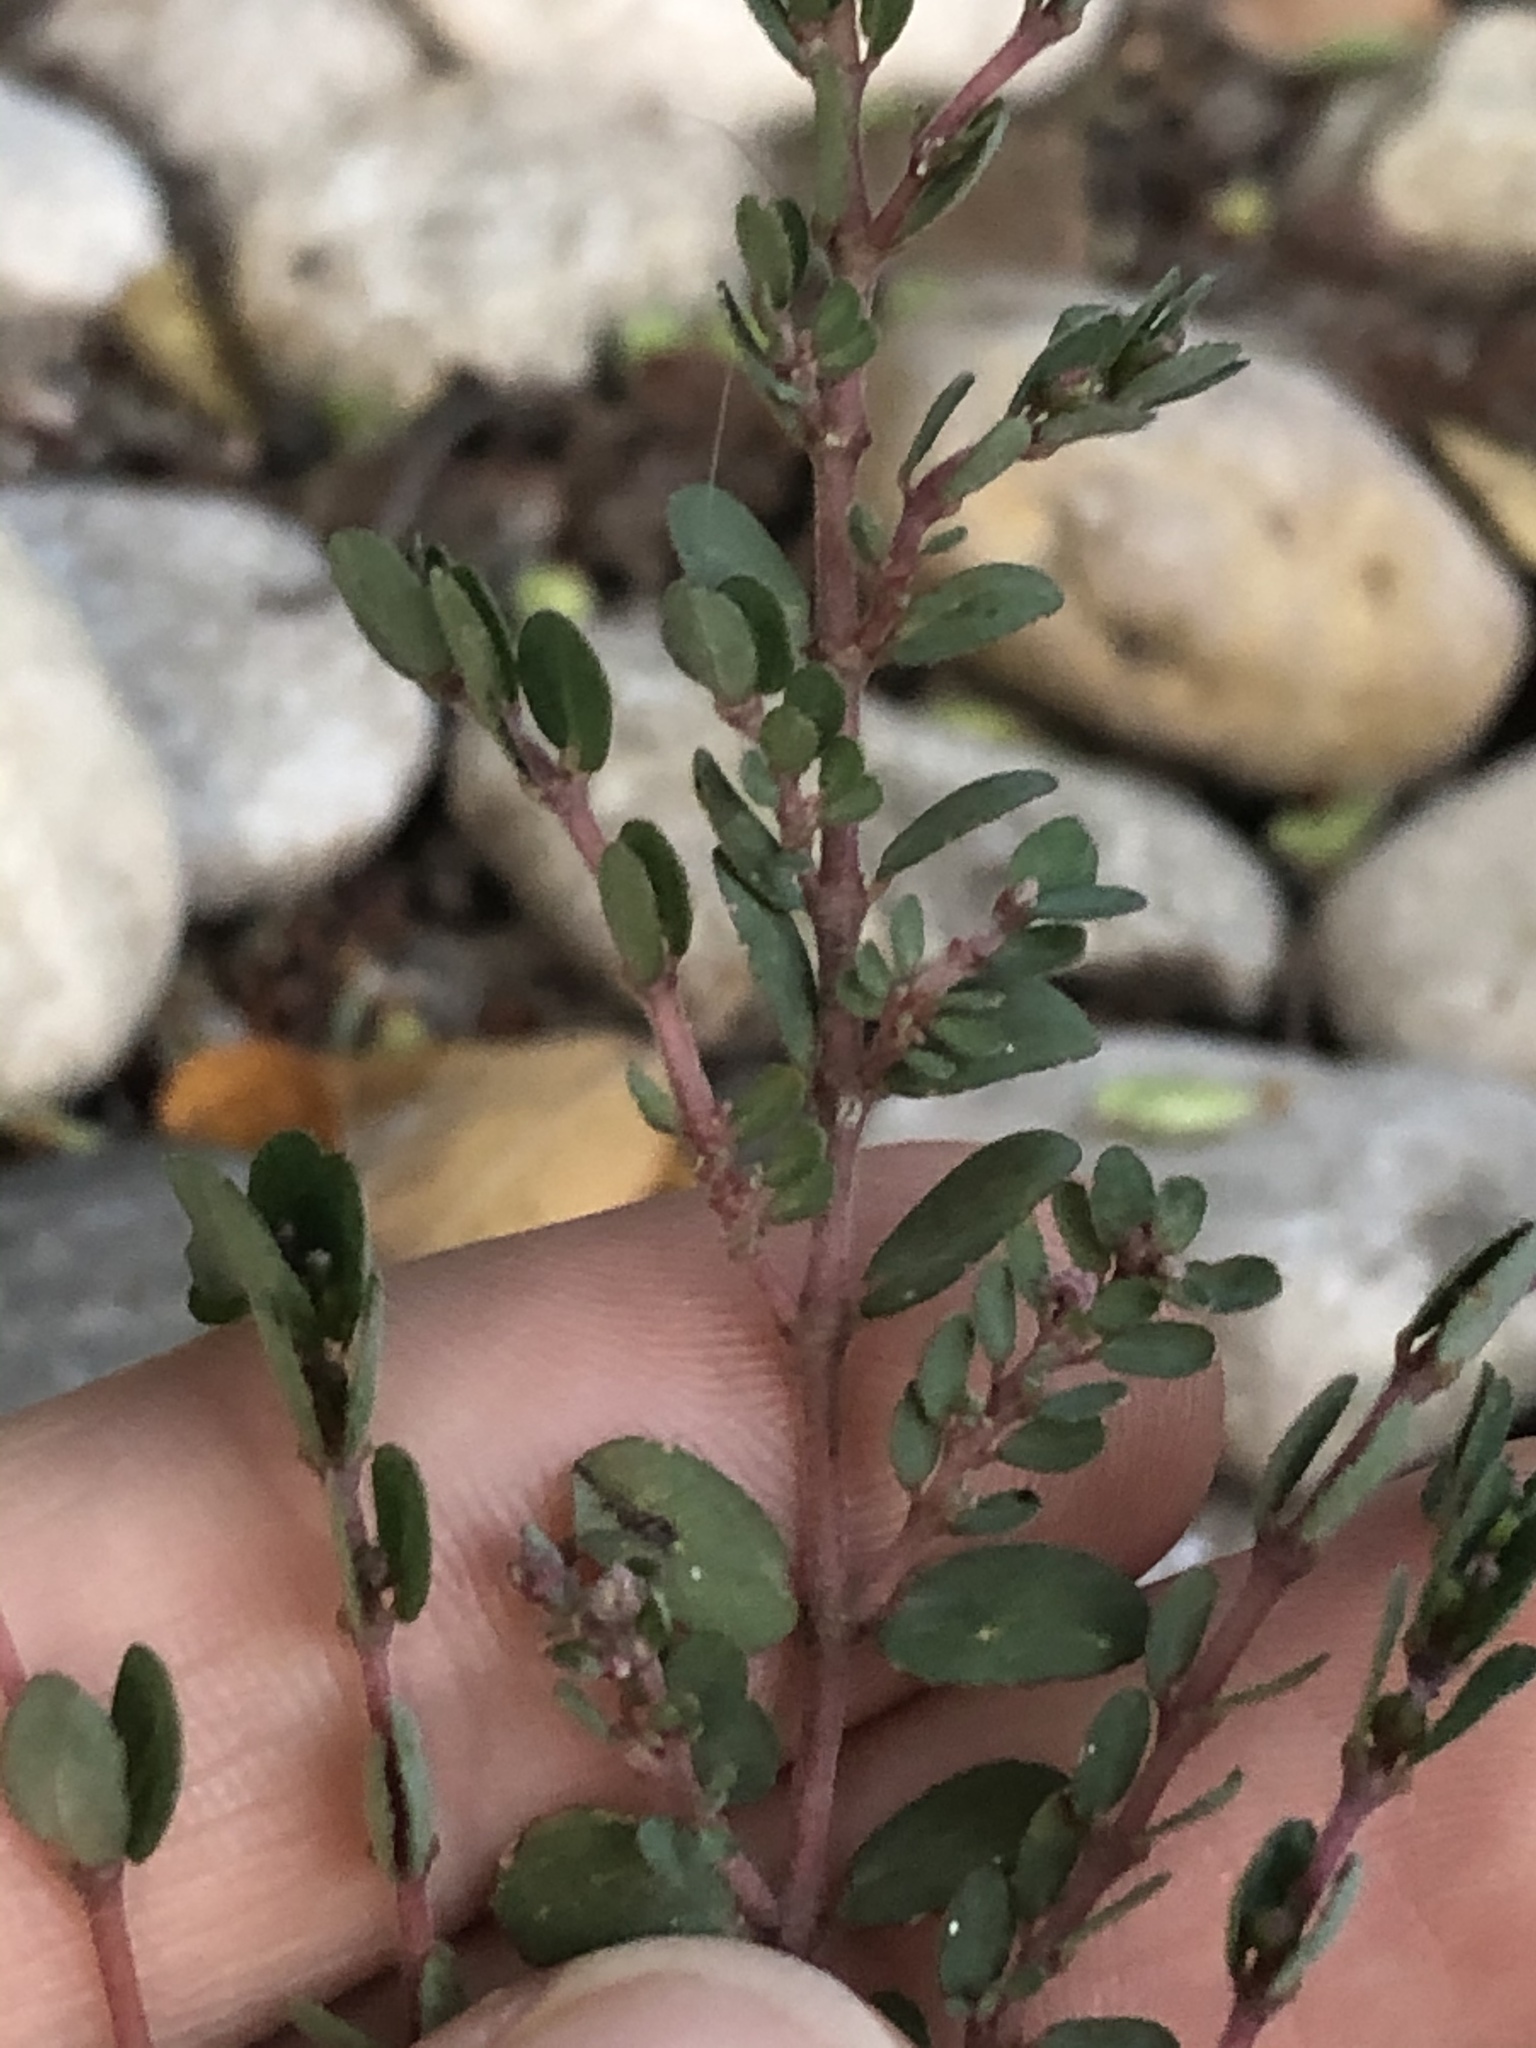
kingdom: Plantae
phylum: Tracheophyta
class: Magnoliopsida
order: Malpighiales
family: Euphorbiaceae
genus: Euphorbia
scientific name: Euphorbia prostrata
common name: Prostrate sandmat
